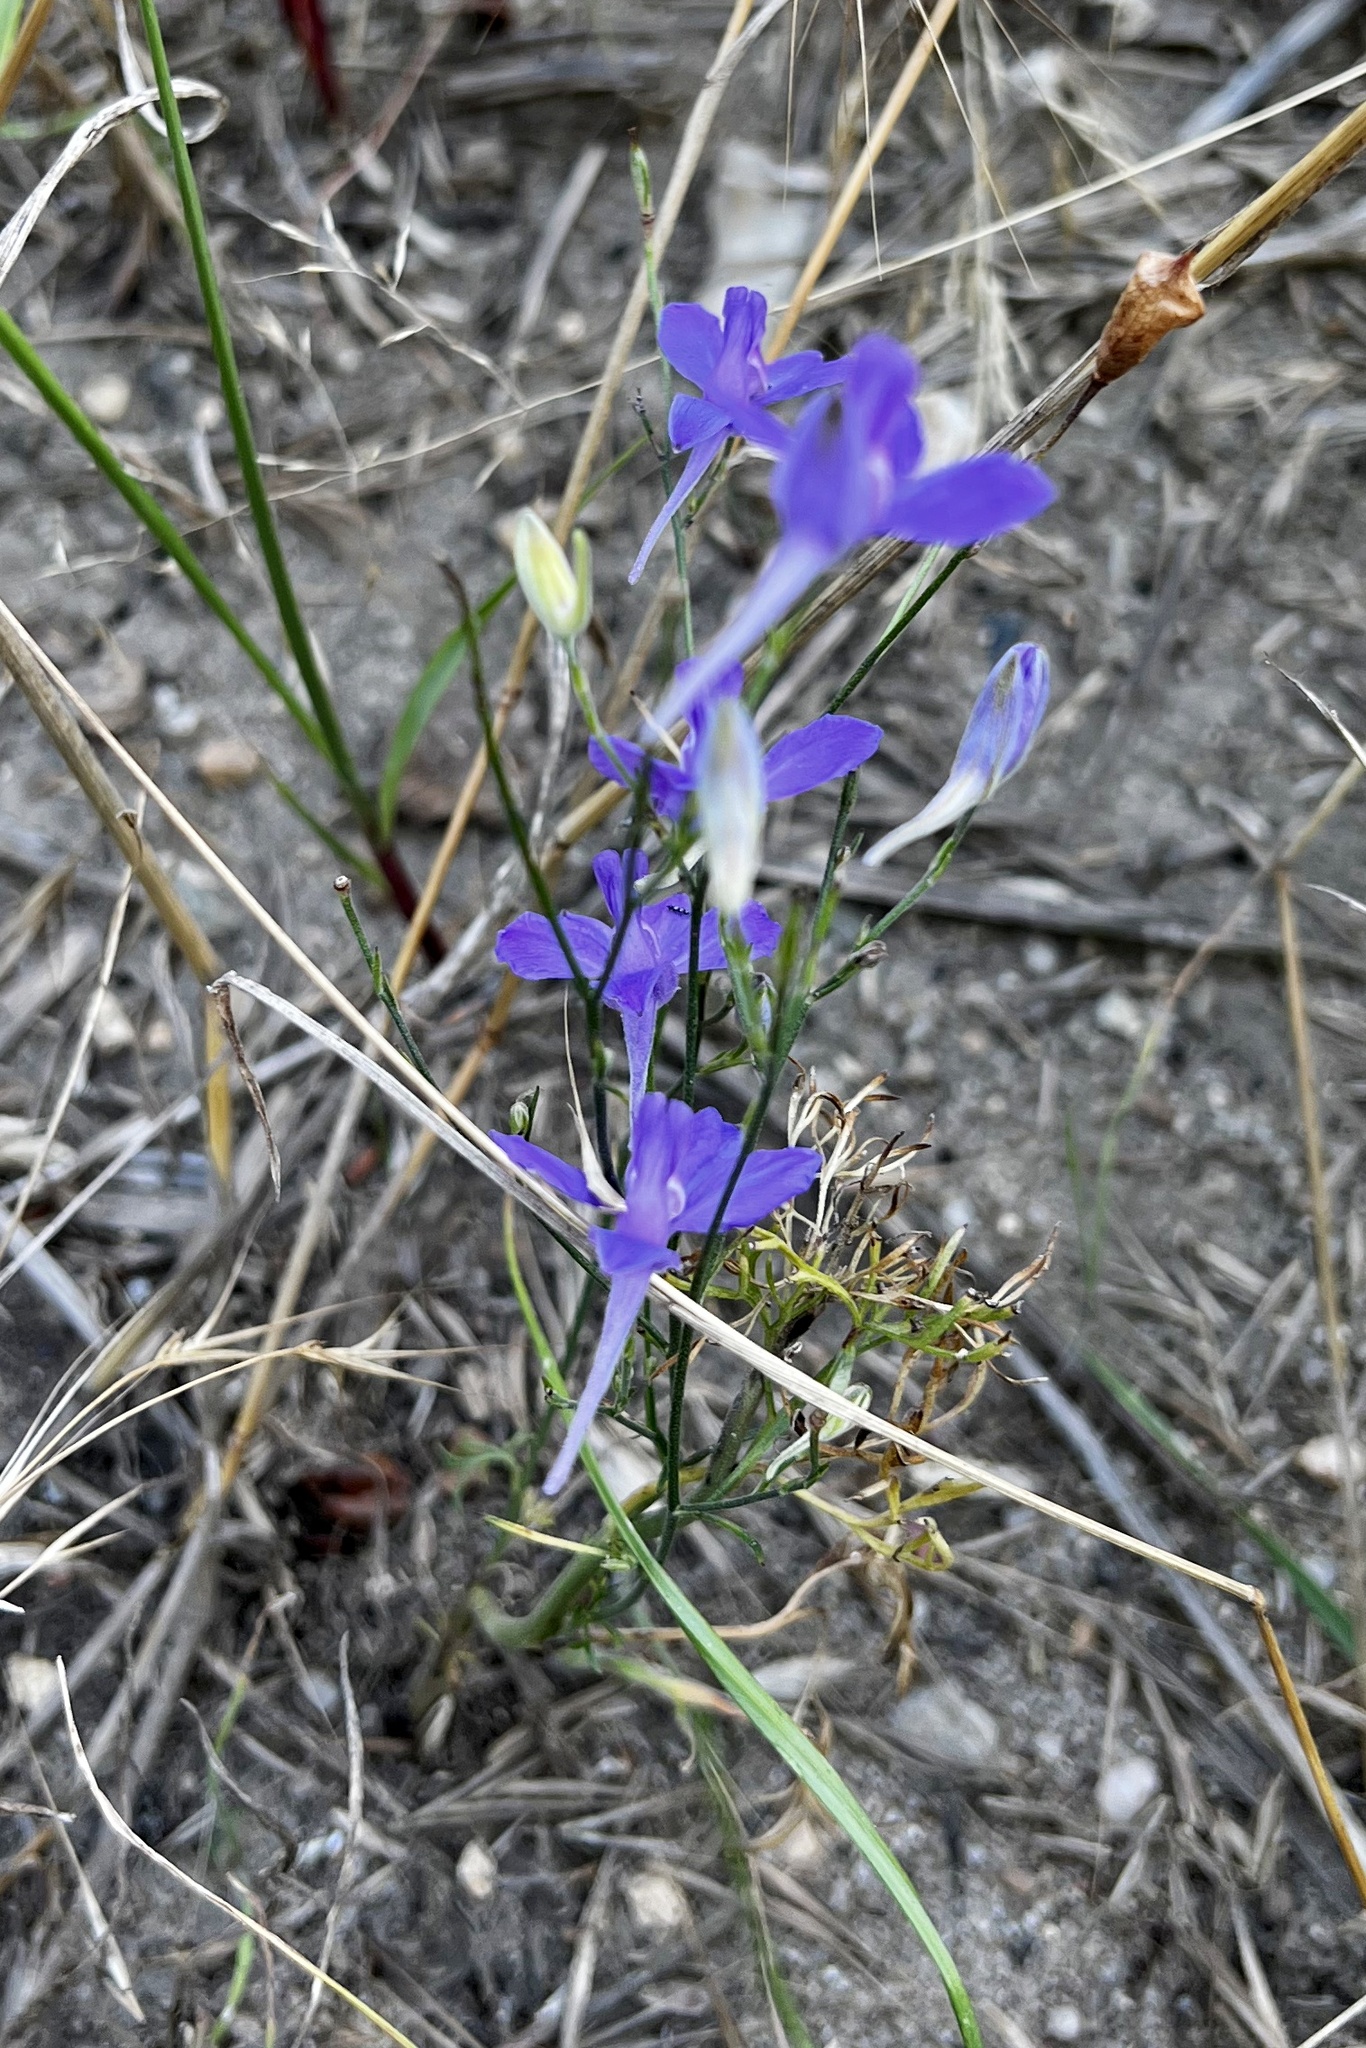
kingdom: Plantae
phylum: Tracheophyta
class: Magnoliopsida
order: Ranunculales
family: Ranunculaceae
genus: Delphinium
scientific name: Delphinium consolida
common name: Branching larkspur
